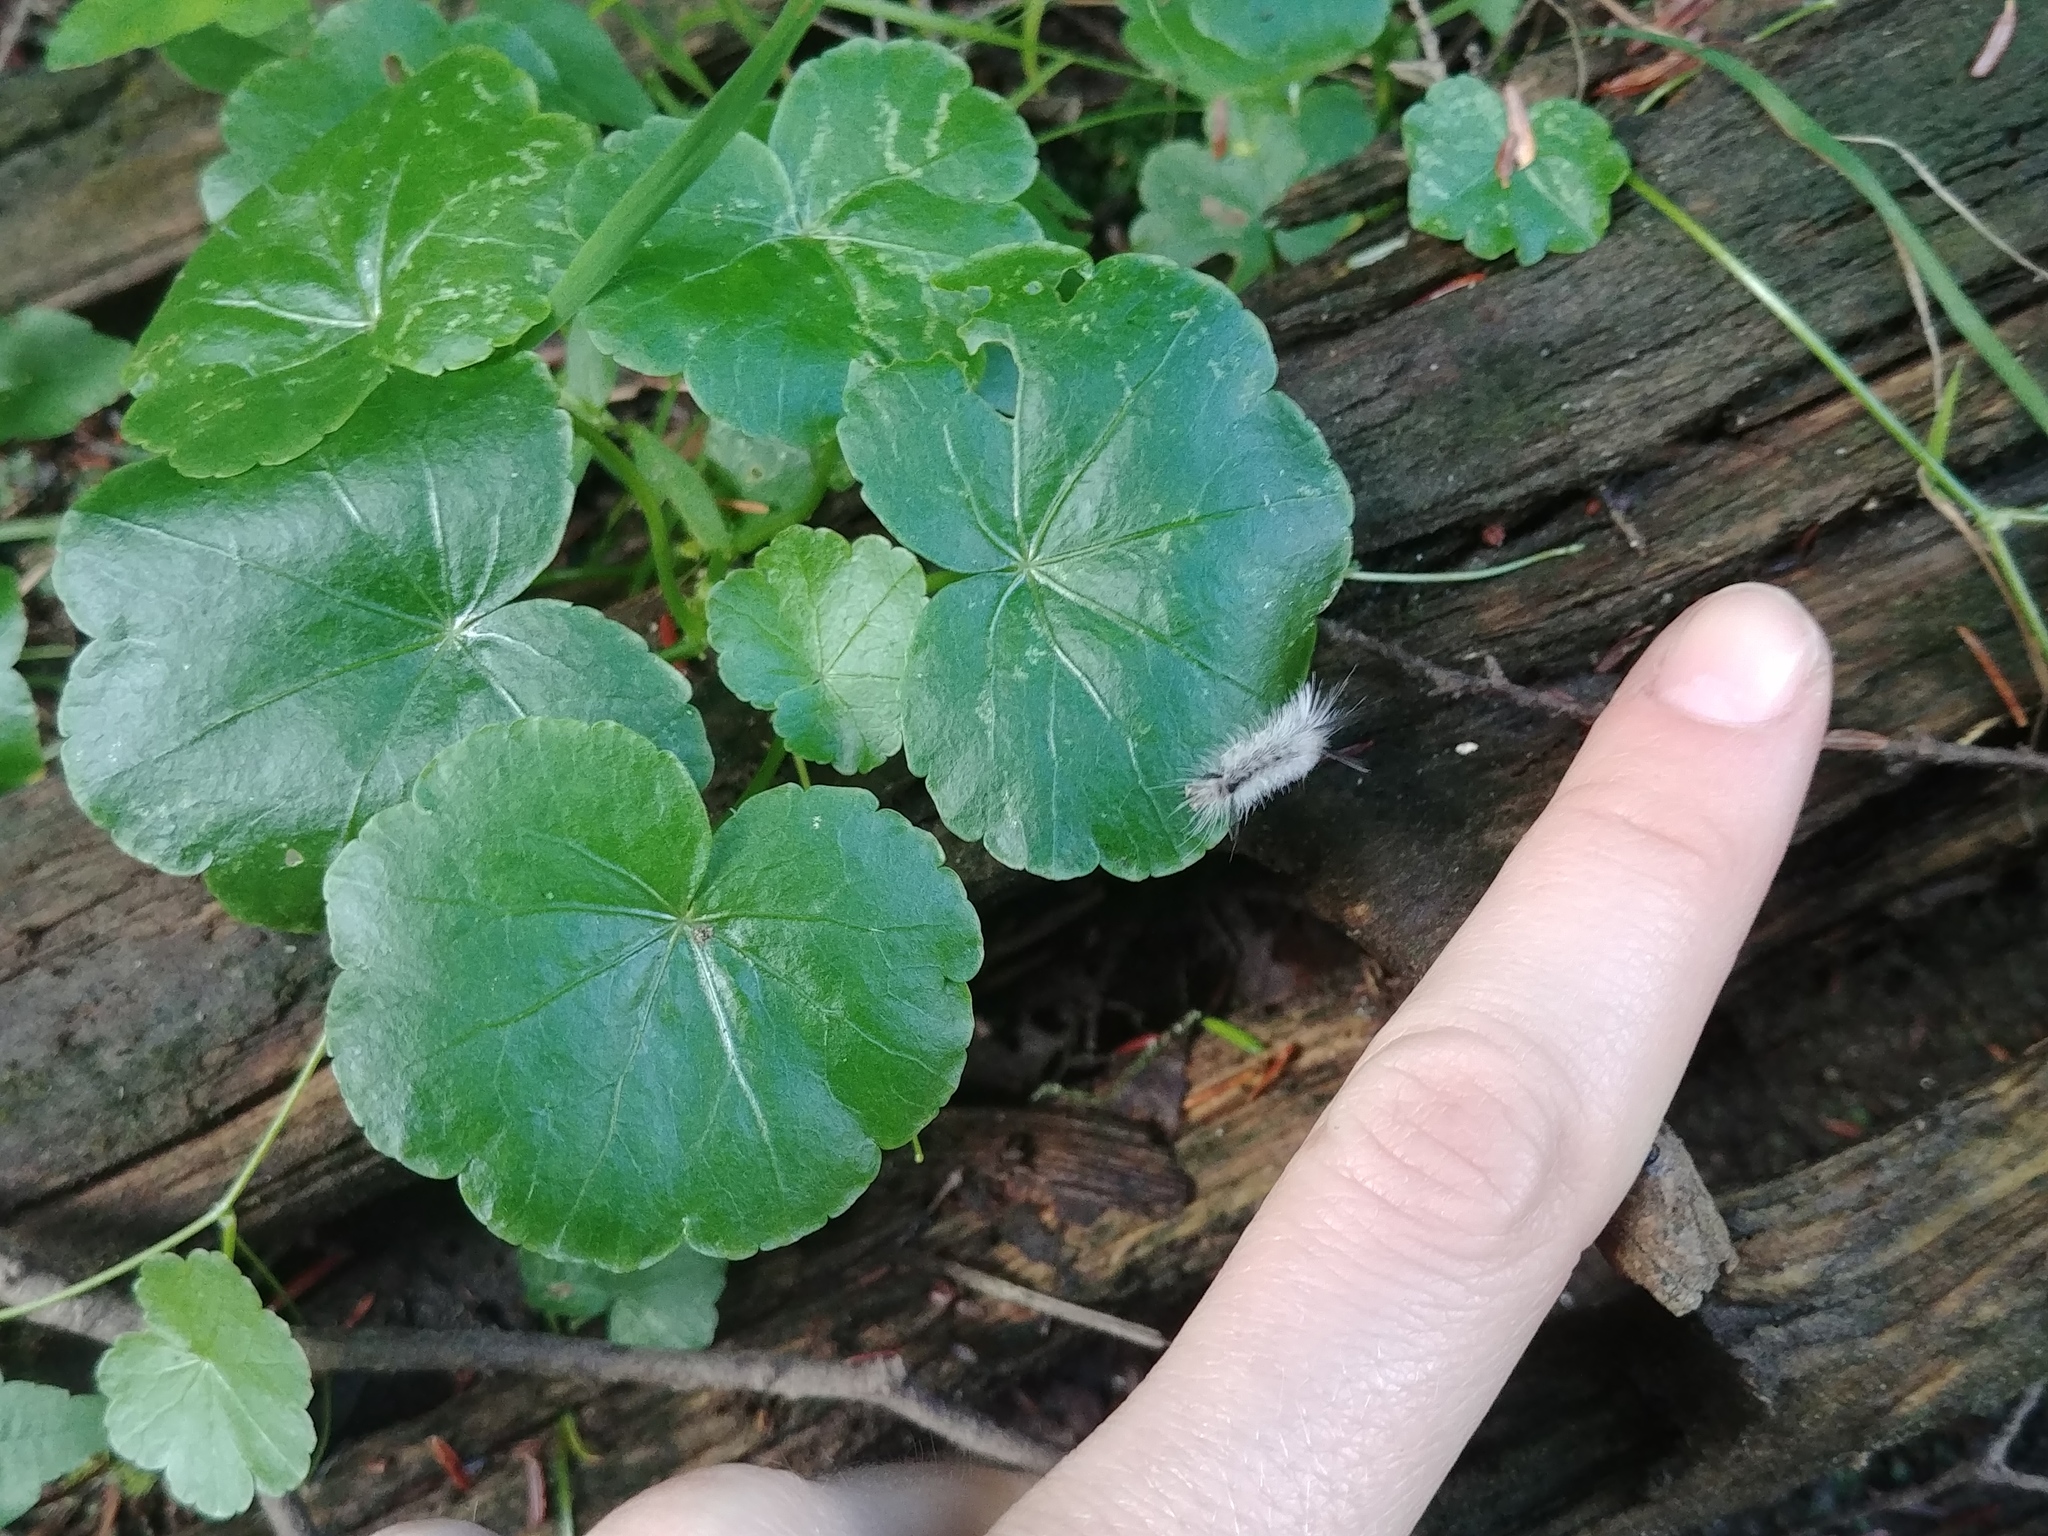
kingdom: Animalia
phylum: Arthropoda
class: Insecta
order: Lepidoptera
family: Erebidae
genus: Halysidota
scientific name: Halysidota tessellaris
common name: Banded tussock moth
